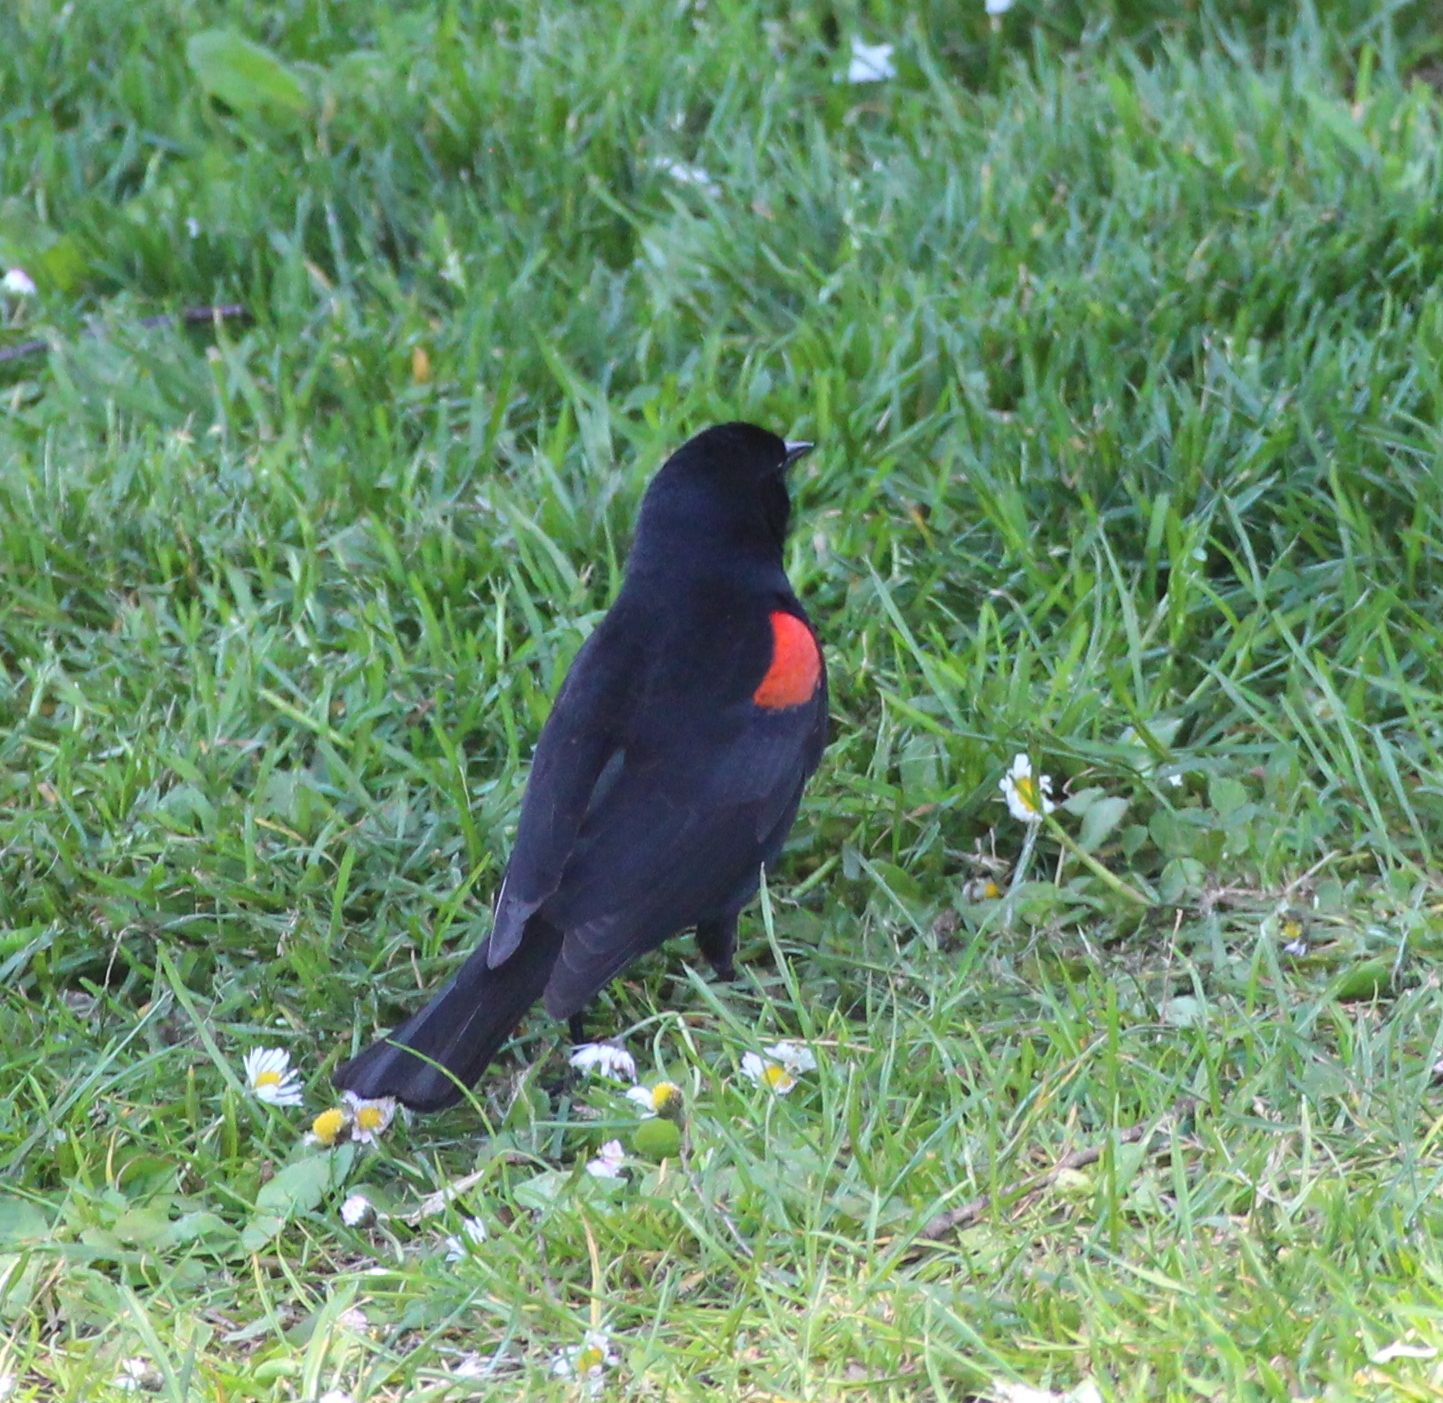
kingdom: Animalia
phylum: Chordata
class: Aves
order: Passeriformes
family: Icteridae
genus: Agelaius
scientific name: Agelaius phoeniceus
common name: Red-winged blackbird
